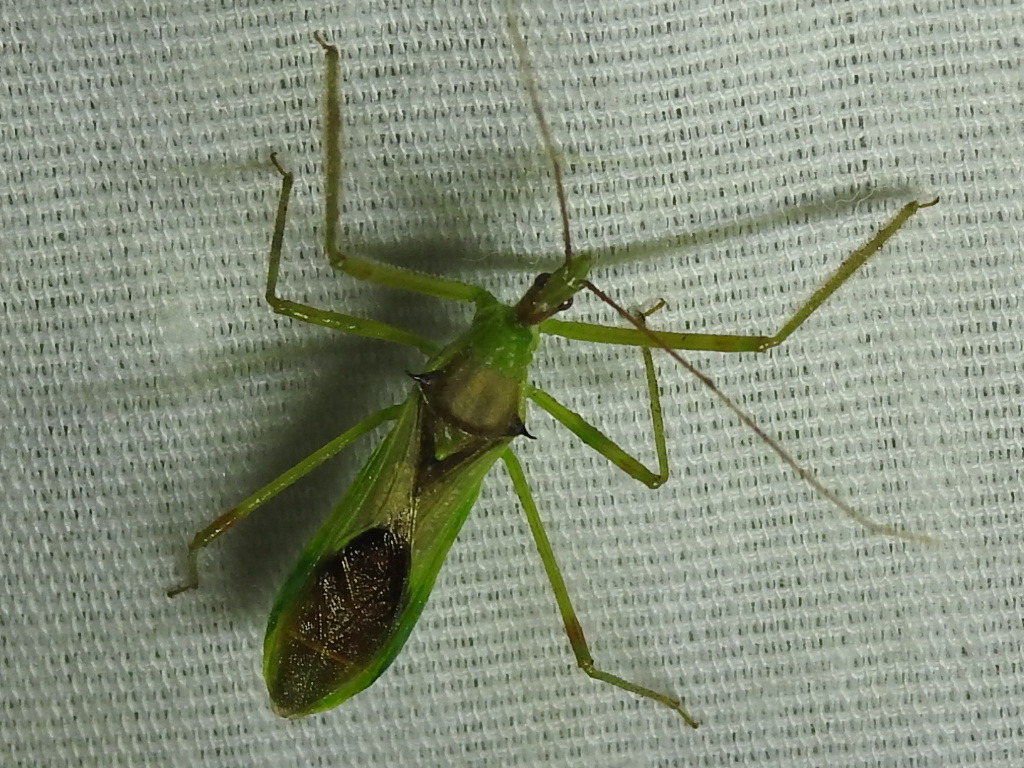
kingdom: Animalia
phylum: Arthropoda
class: Insecta
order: Hemiptera
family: Reduviidae
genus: Zelus
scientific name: Zelus luridus
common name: Pale green assassin bug
